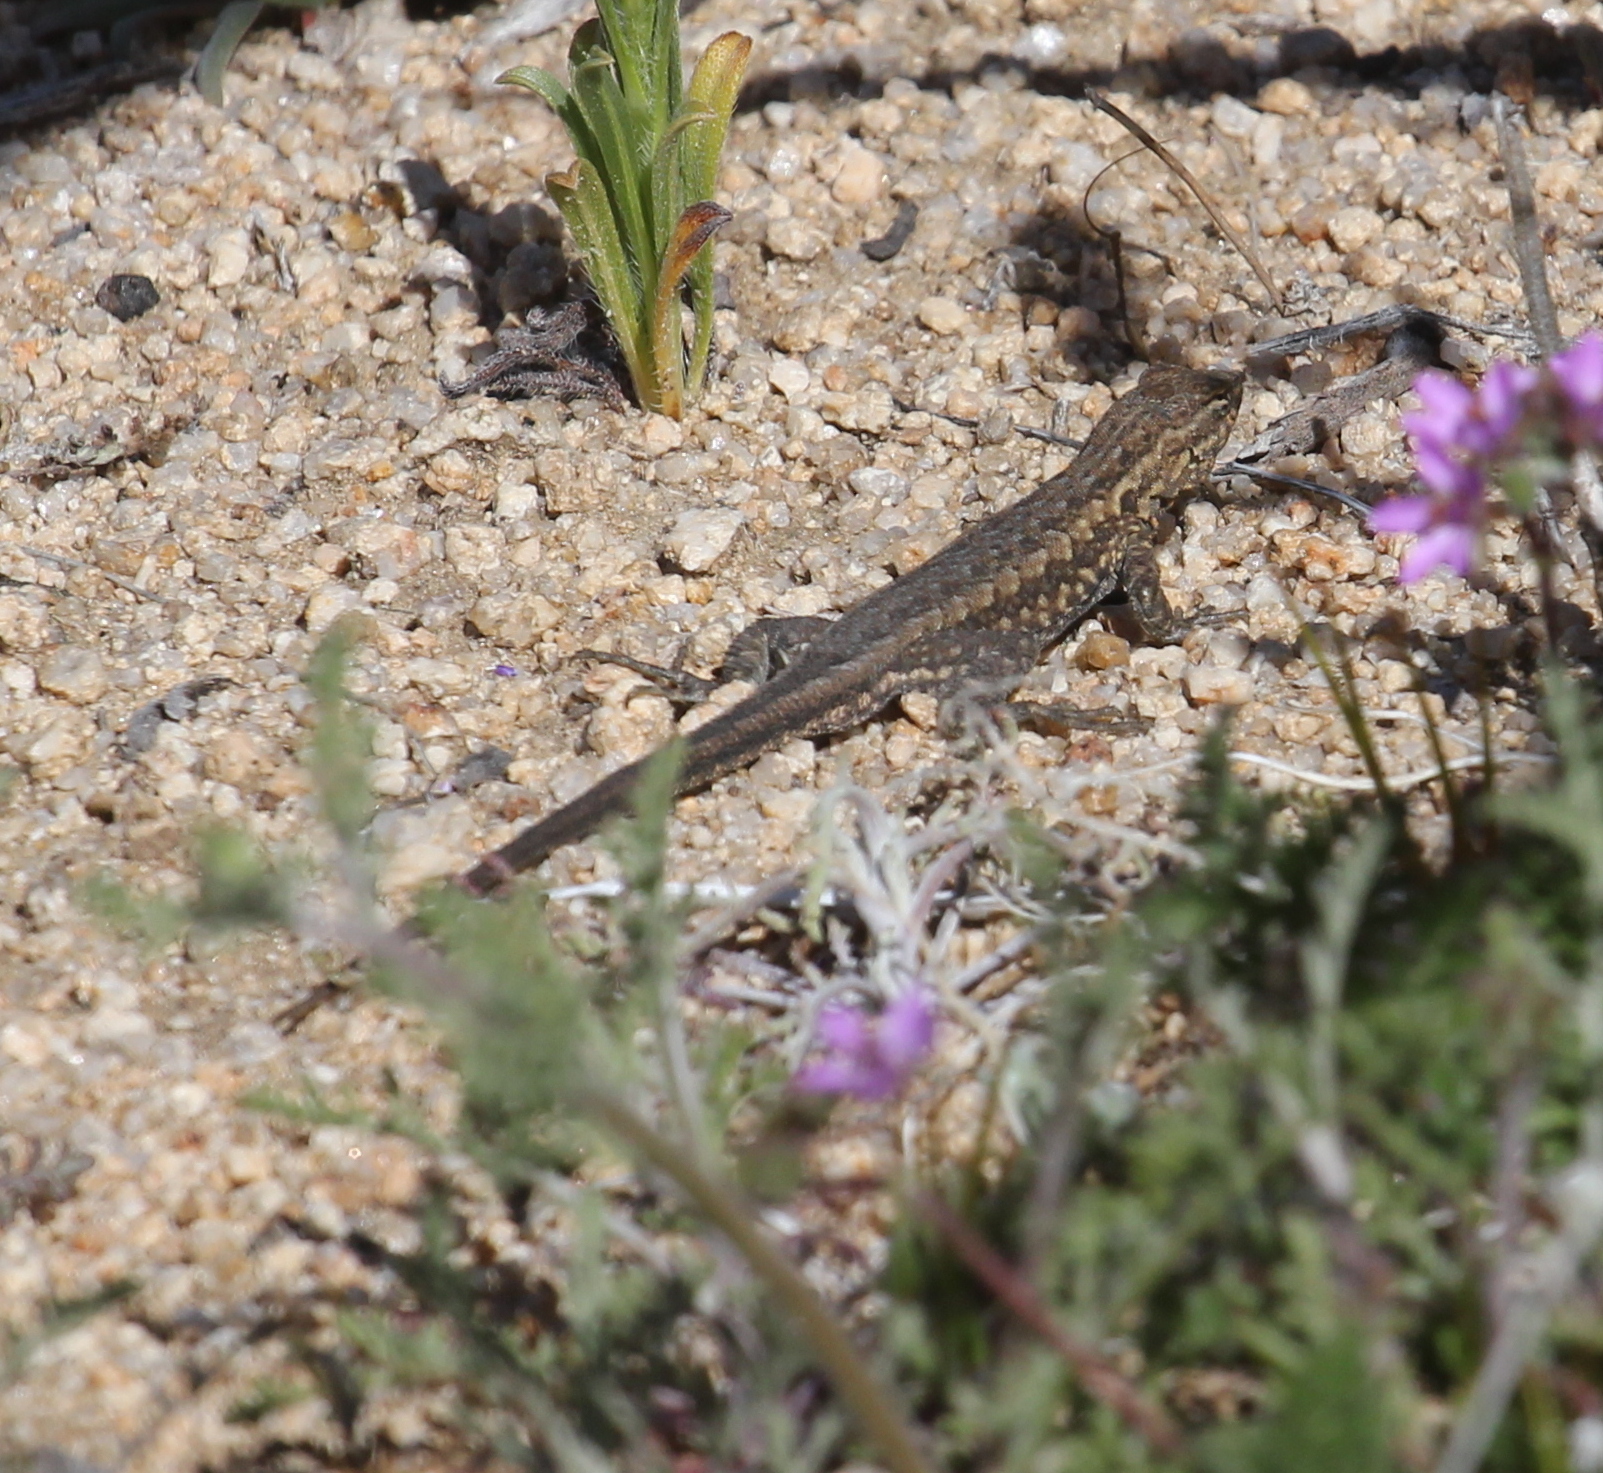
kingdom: Animalia
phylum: Chordata
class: Squamata
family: Phrynosomatidae
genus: Uta
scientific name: Uta stansburiana
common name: Side-blotched lizard
